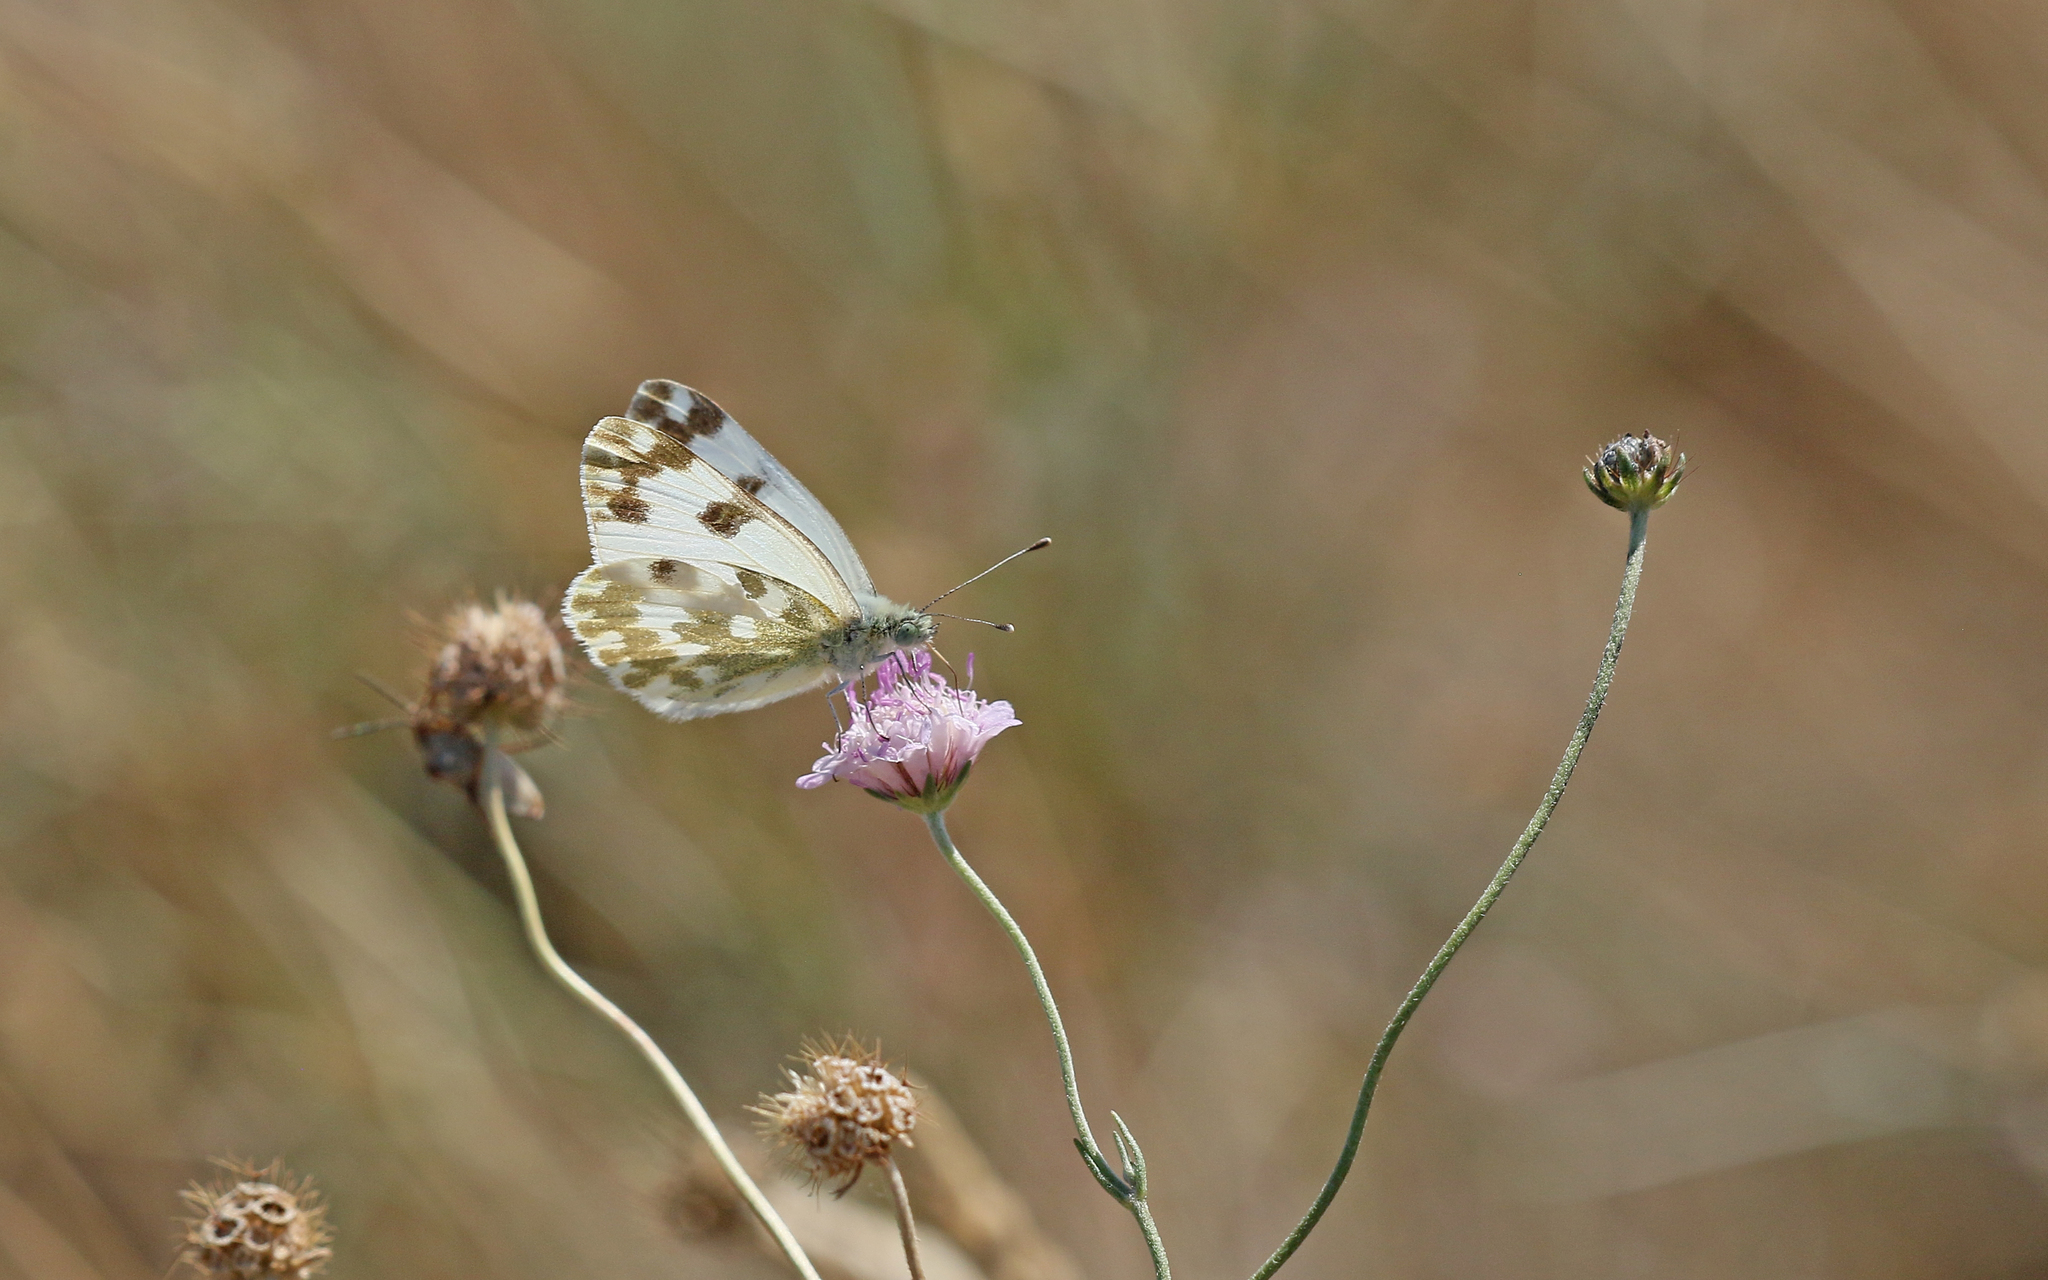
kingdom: Animalia
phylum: Arthropoda
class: Insecta
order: Lepidoptera
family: Pieridae
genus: Pontia
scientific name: Pontia daplidice
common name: Bath white
